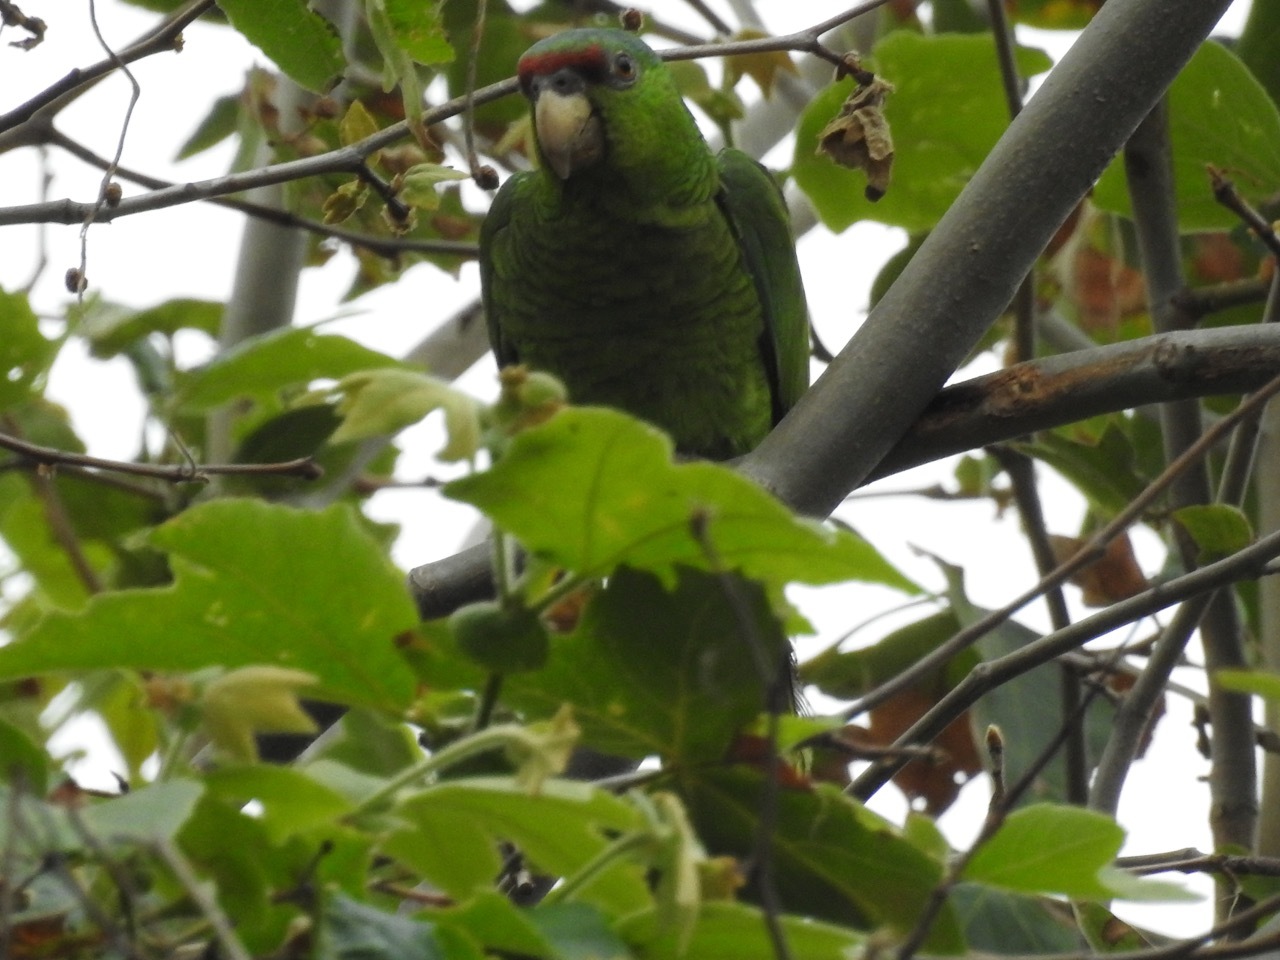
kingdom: Animalia
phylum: Chordata
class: Aves
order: Psittaciformes
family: Psittacidae
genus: Amazona
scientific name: Amazona finschi
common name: Lilac-crowned amazon
